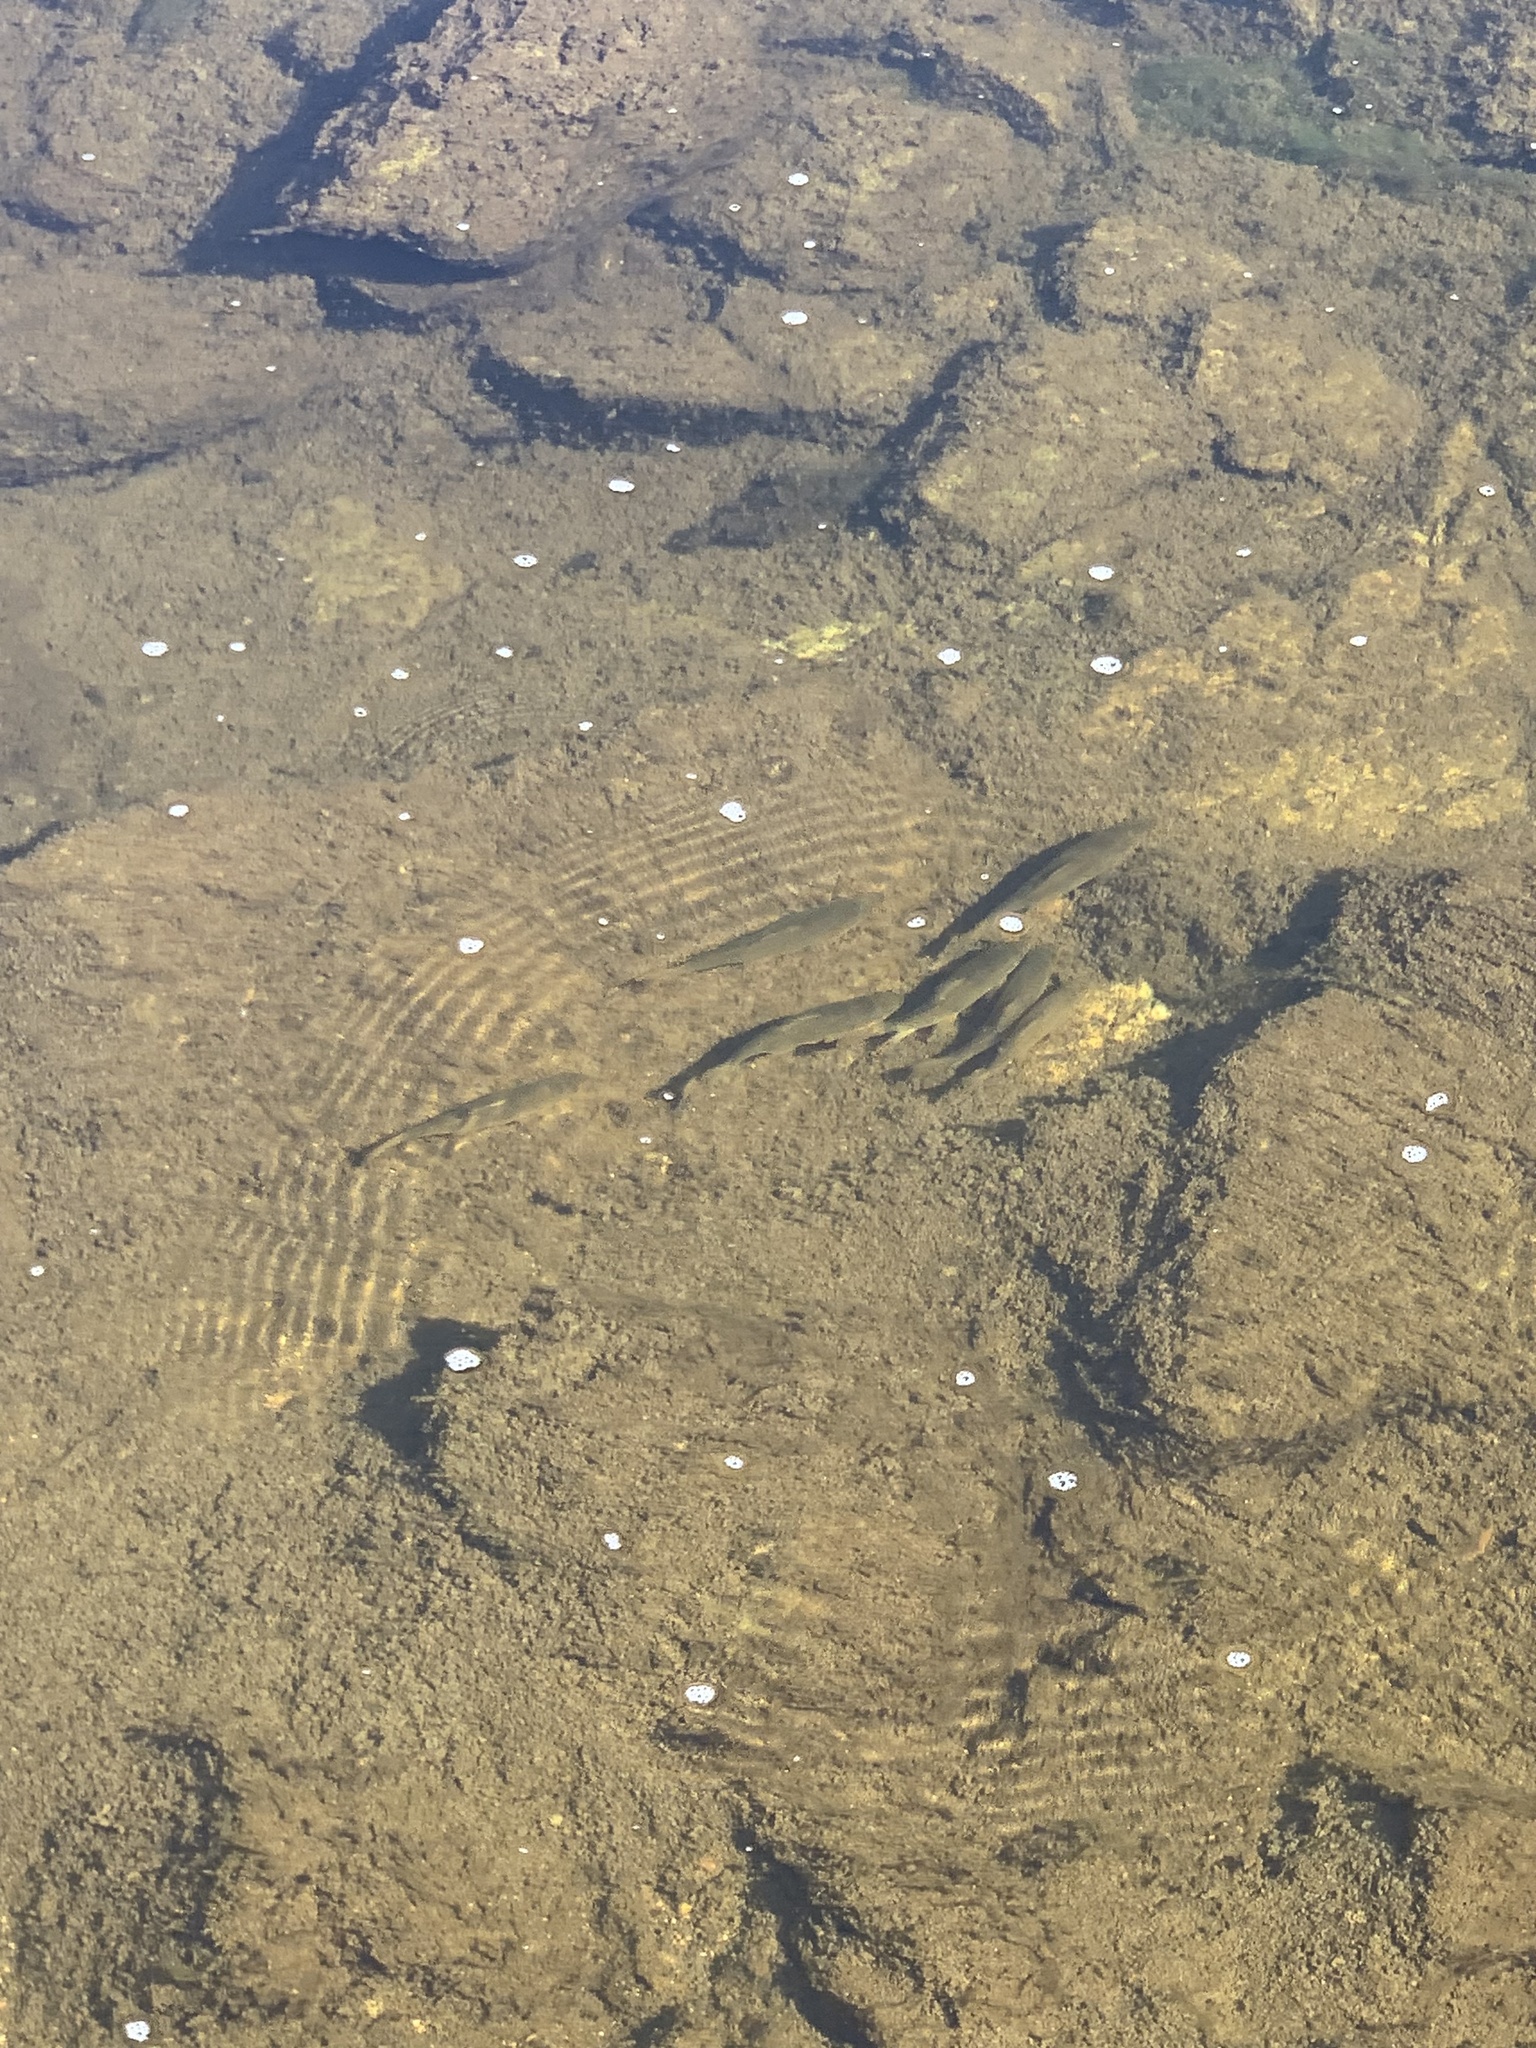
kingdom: Animalia
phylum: Chordata
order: Cypriniformes
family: Catostomidae
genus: Catostomus
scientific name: Catostomus occidentalis
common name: Goose lake sucker
